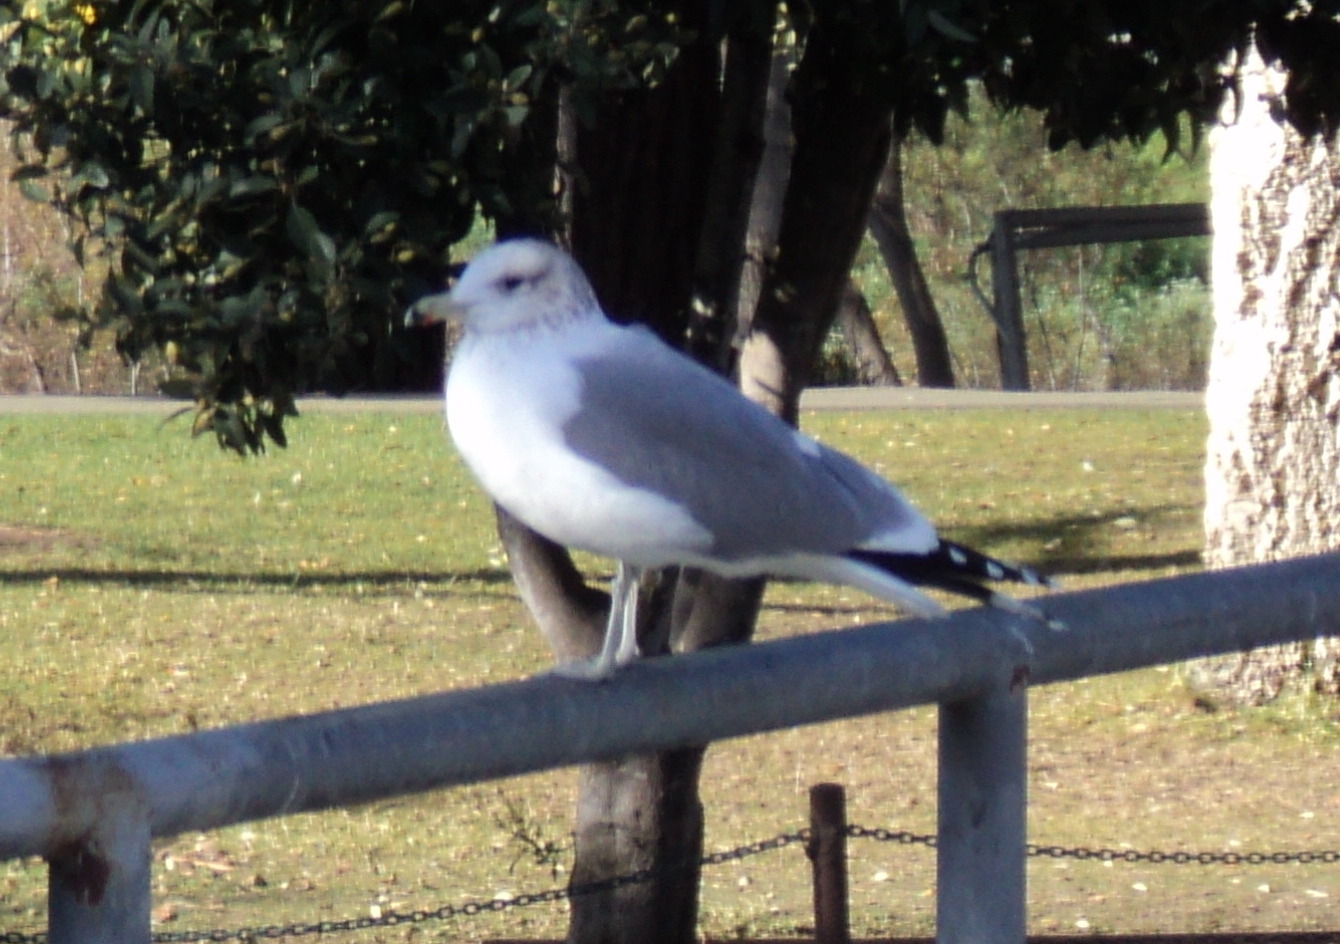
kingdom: Animalia
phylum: Chordata
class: Aves
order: Charadriiformes
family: Laridae
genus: Larus
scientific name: Larus californicus
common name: California gull
